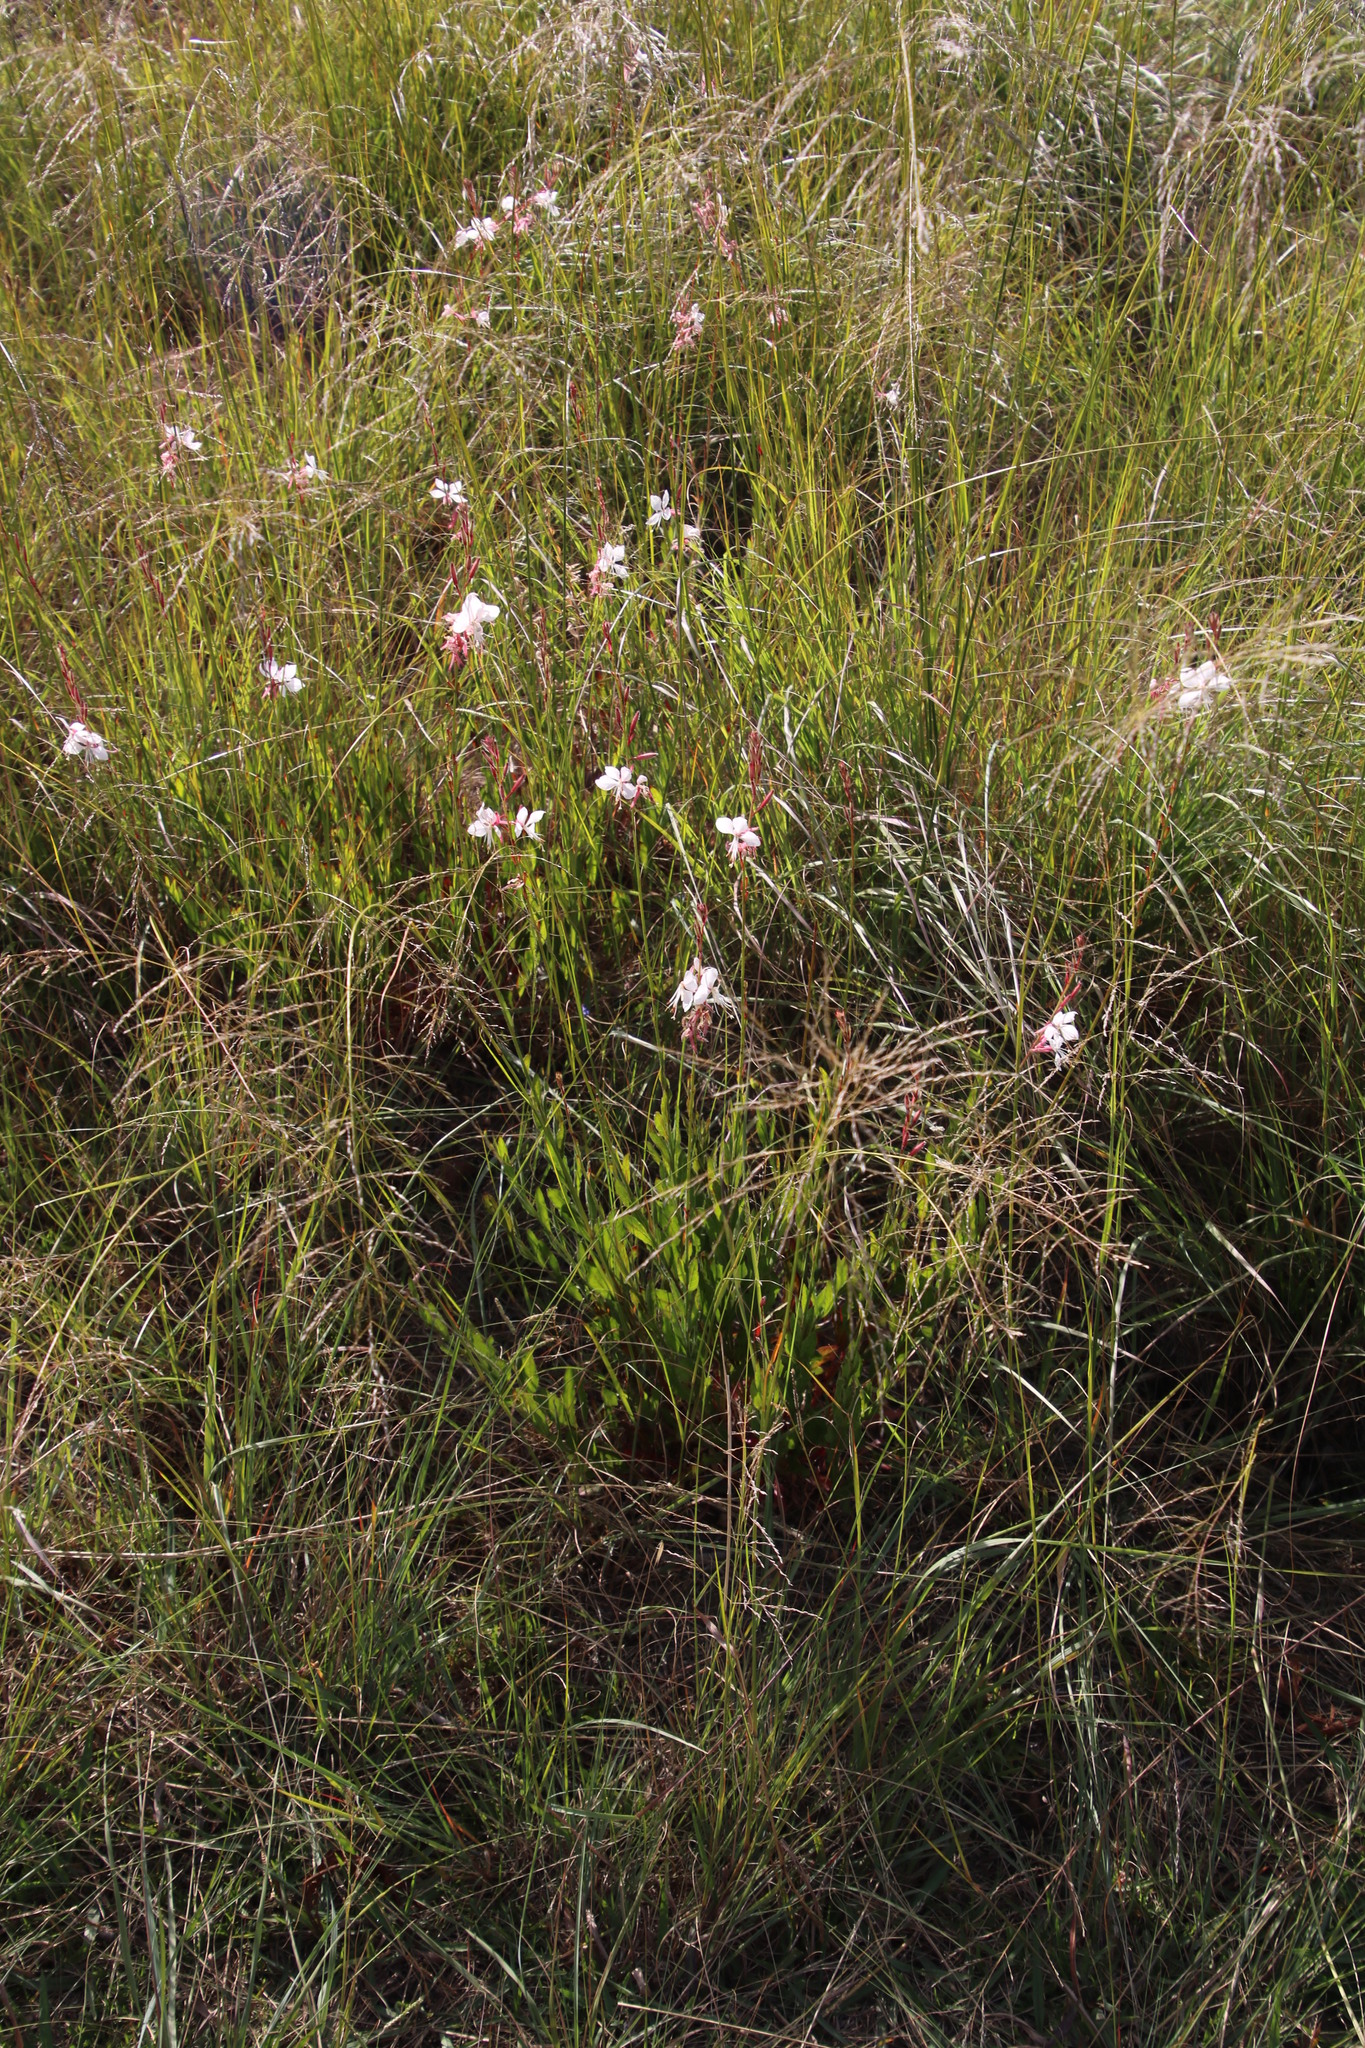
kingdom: Plantae
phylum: Tracheophyta
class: Magnoliopsida
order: Myrtales
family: Onagraceae
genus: Oenothera
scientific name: Oenothera lindheimeri
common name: Lindheimer's beeblossom
